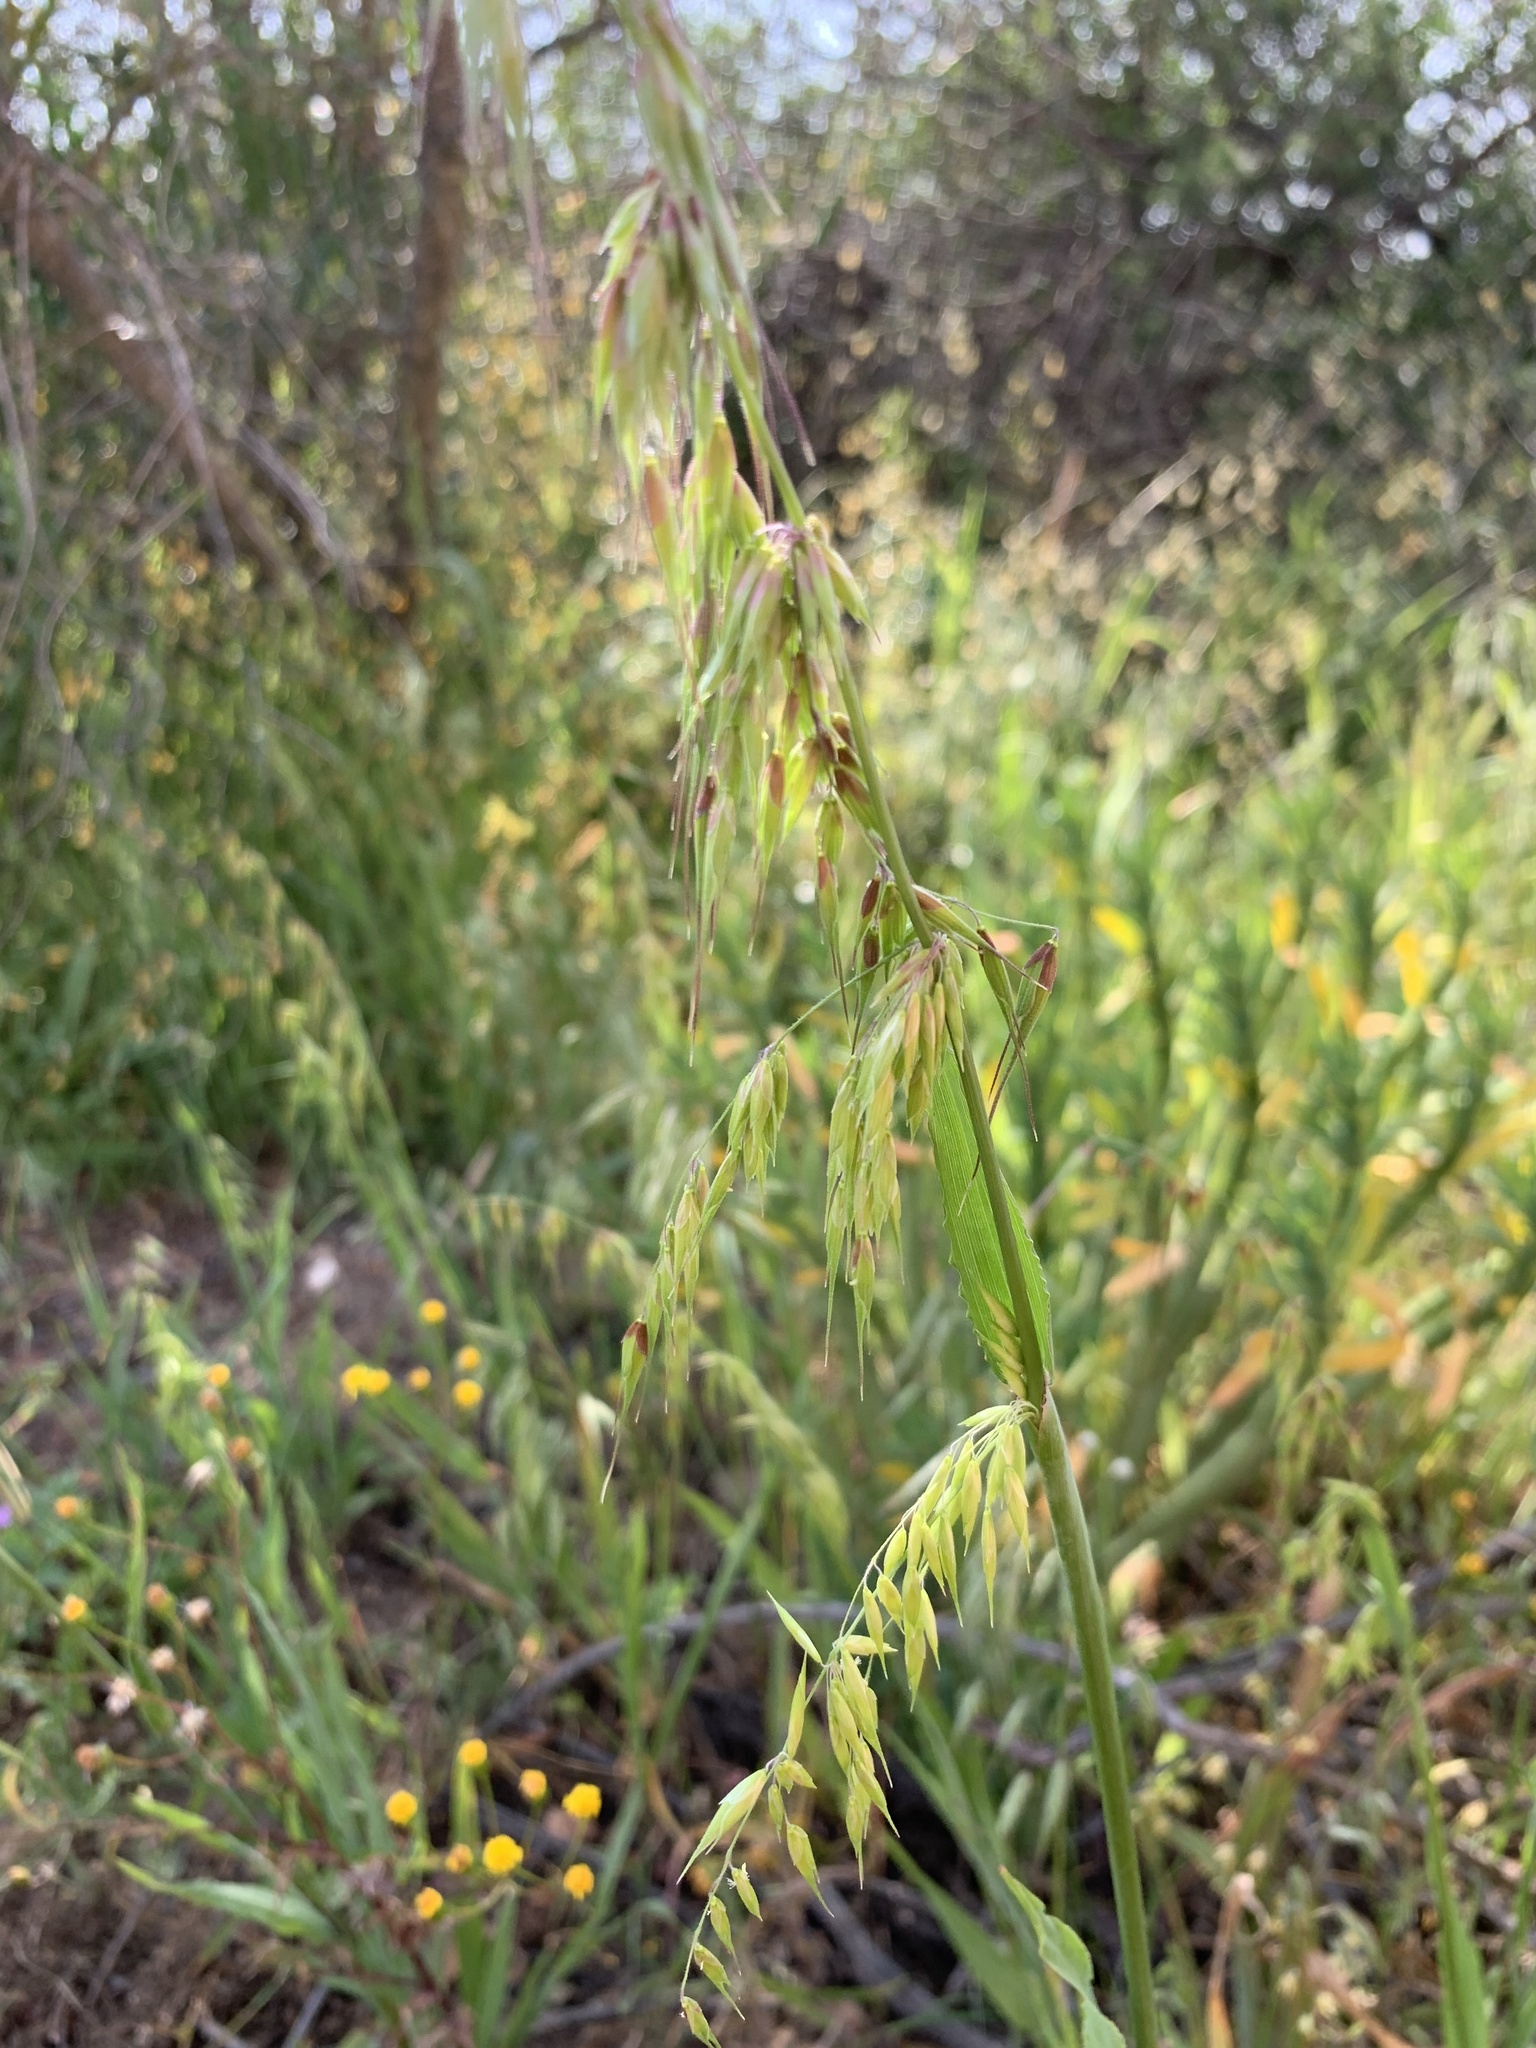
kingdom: Plantae
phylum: Tracheophyta
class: Liliopsida
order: Poales
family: Poaceae
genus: Ehrharta
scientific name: Ehrharta longiflora
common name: Longflowered veldtgrass
